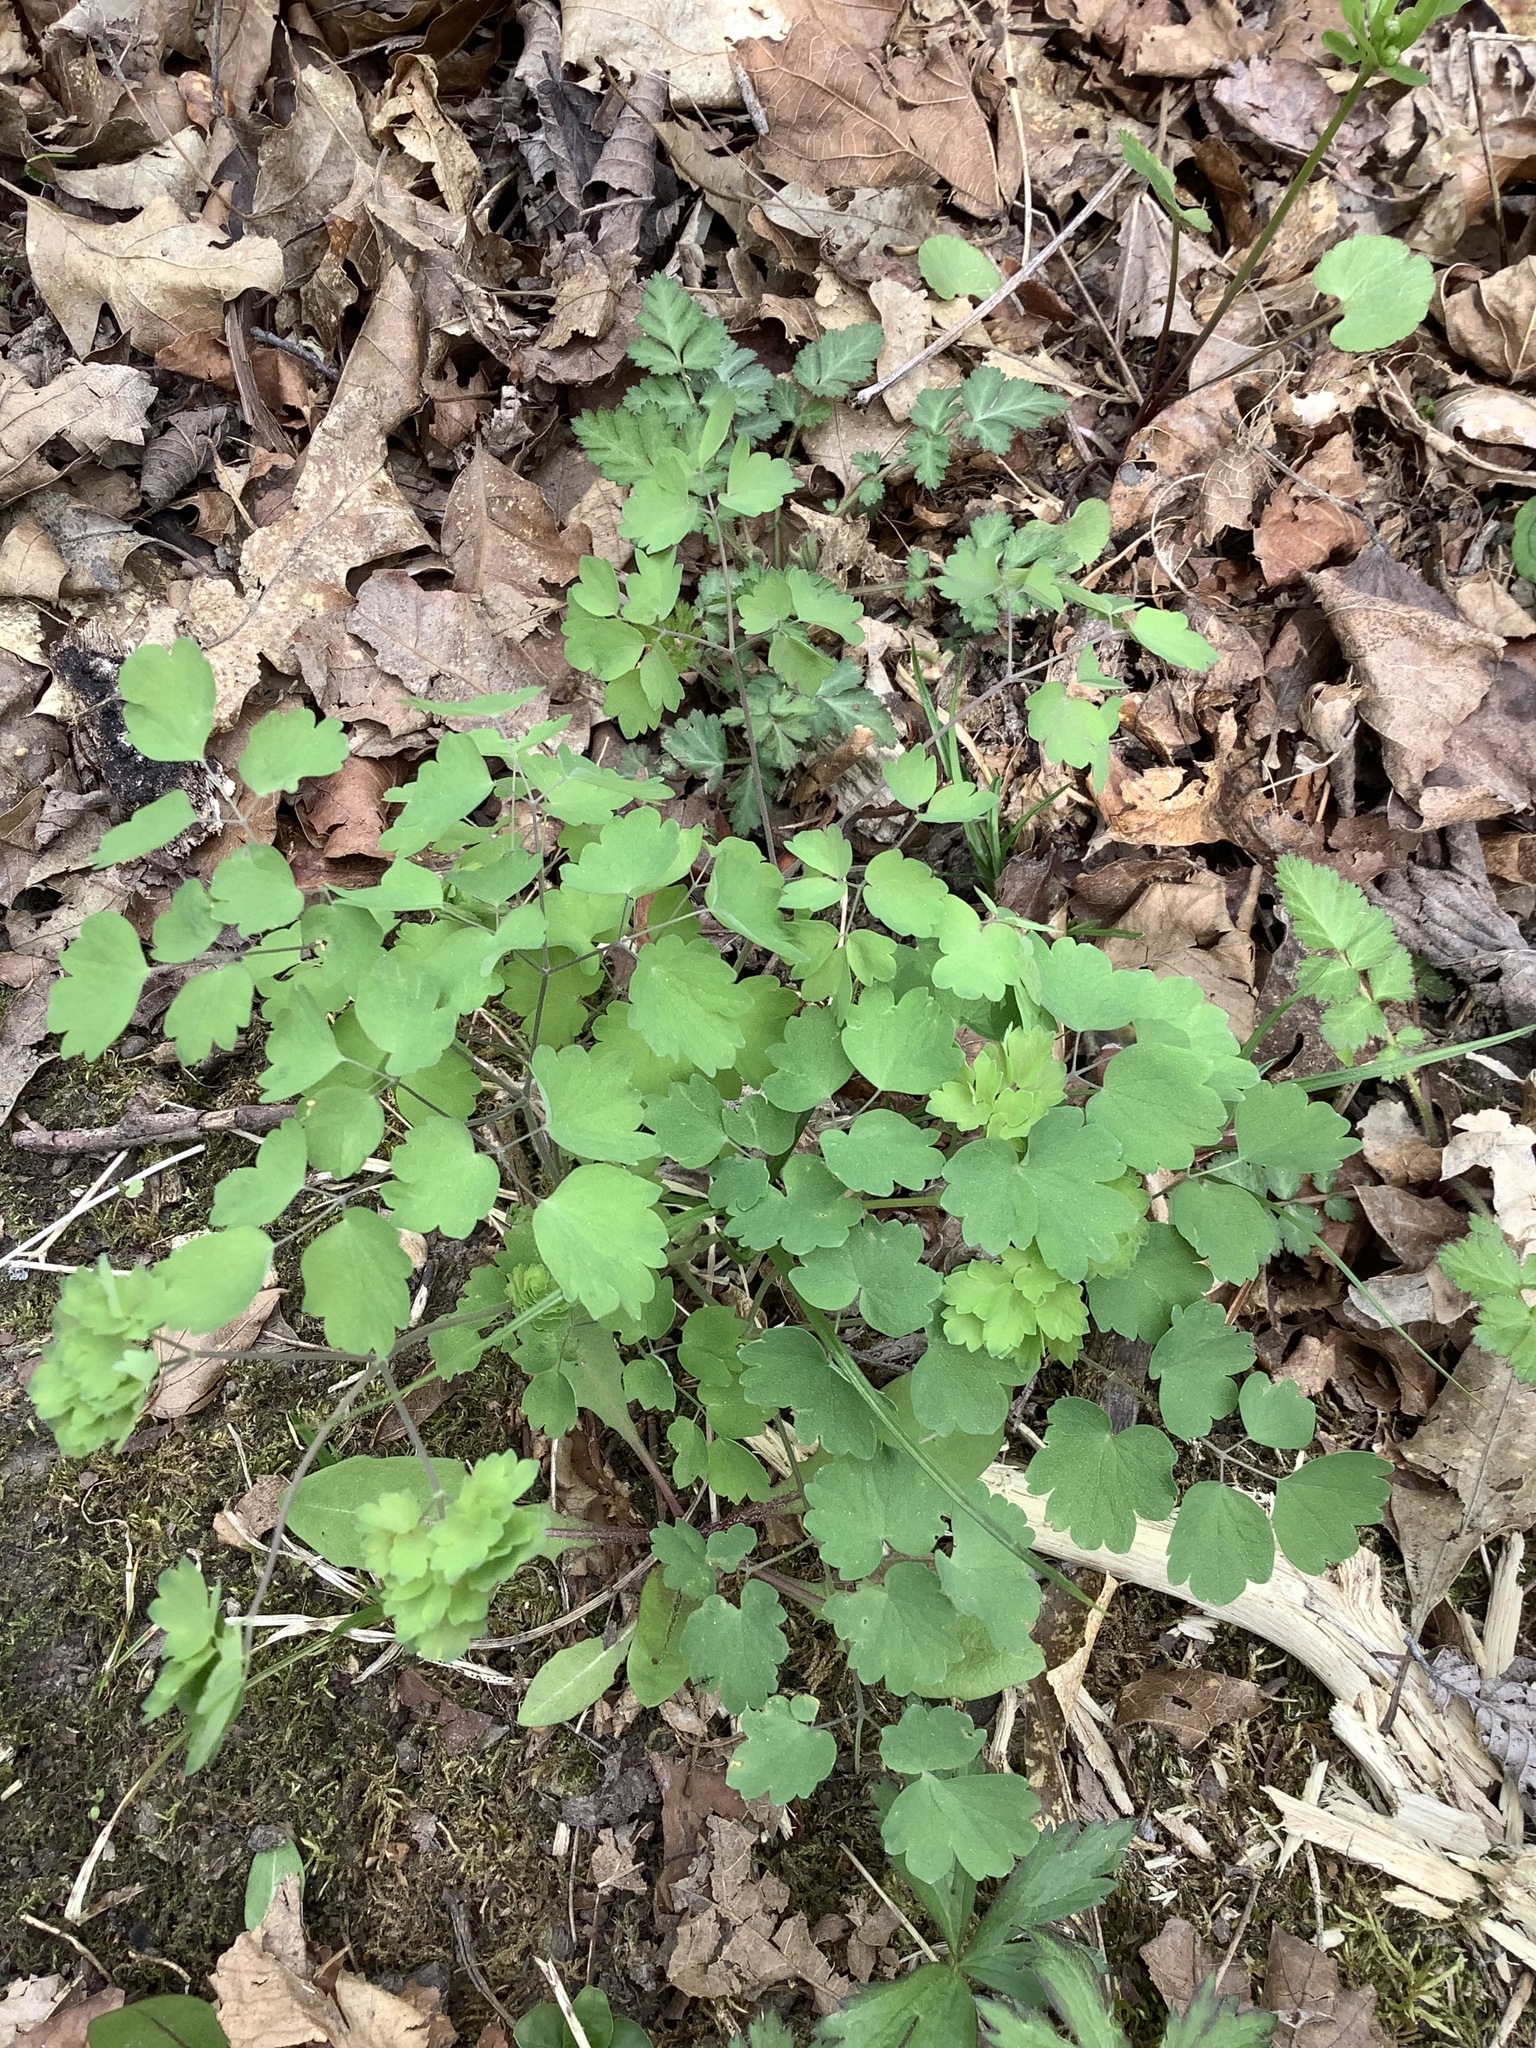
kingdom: Plantae
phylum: Tracheophyta
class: Magnoliopsida
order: Ranunculales
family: Ranunculaceae
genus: Thalictrum
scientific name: Thalictrum dioicum
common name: Early meadow-rue
